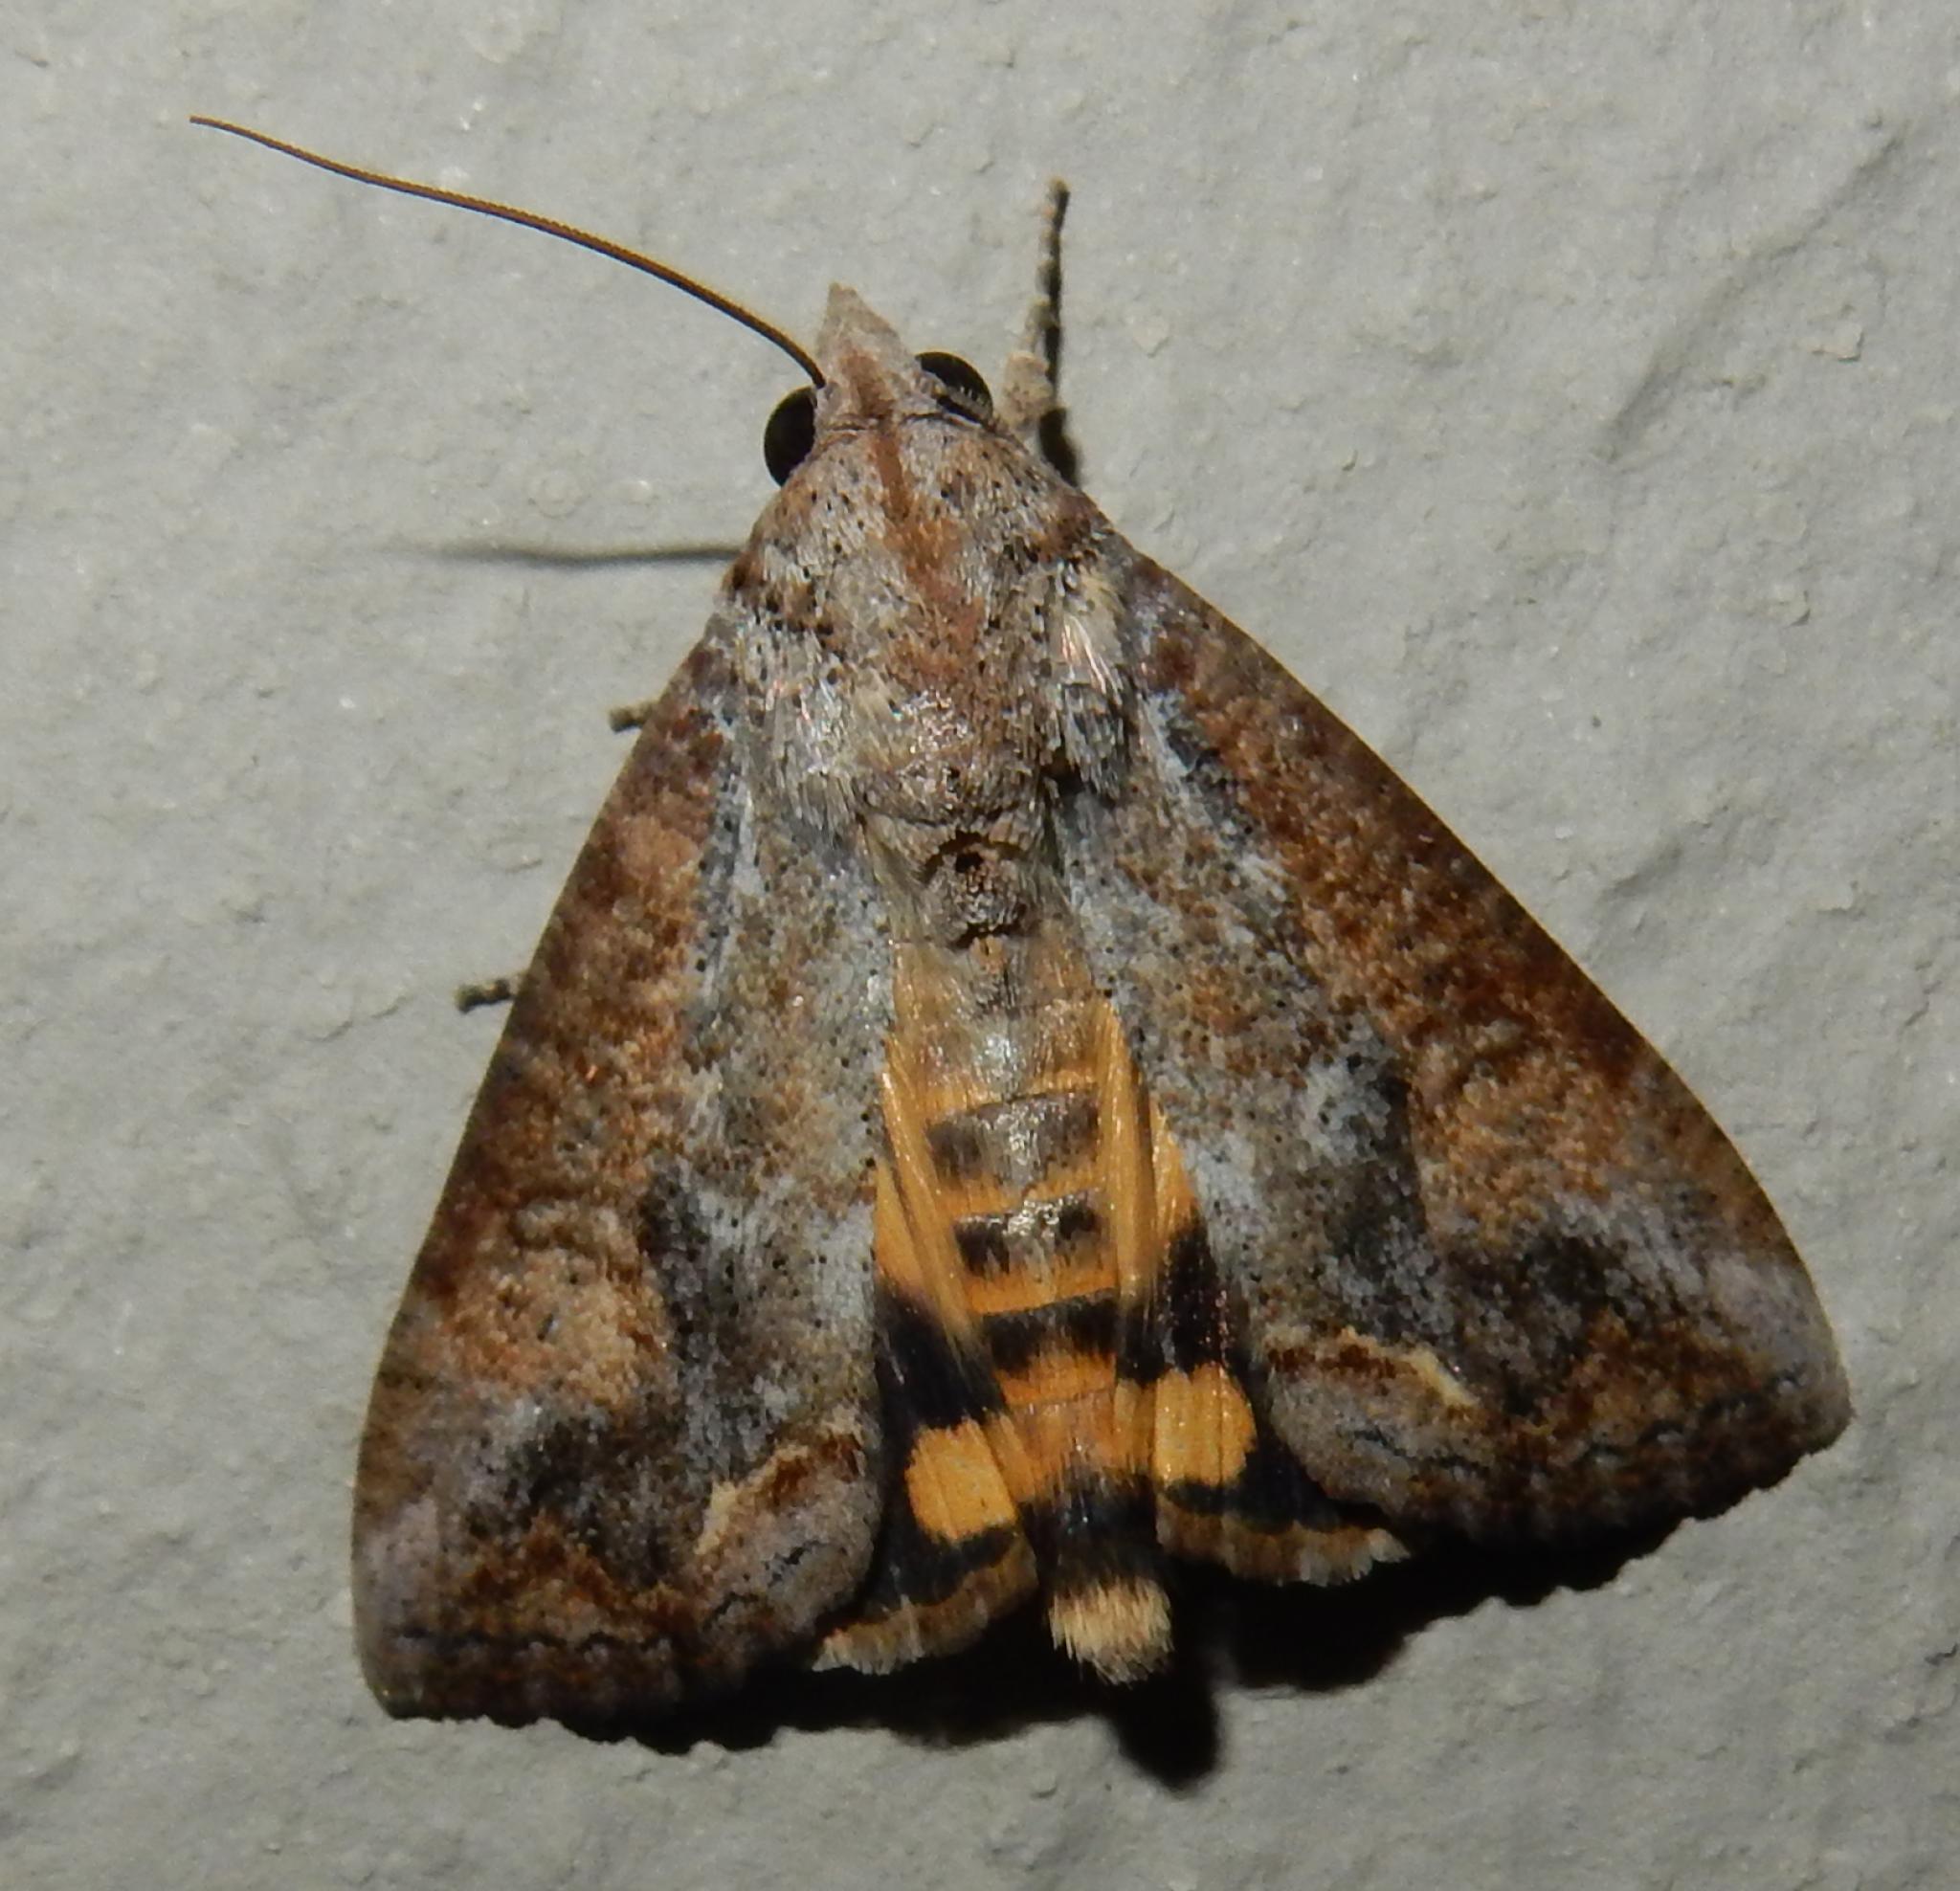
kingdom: Animalia
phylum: Arthropoda
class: Insecta
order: Lepidoptera
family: Erebidae
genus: Hypocala
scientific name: Hypocala rostrata
